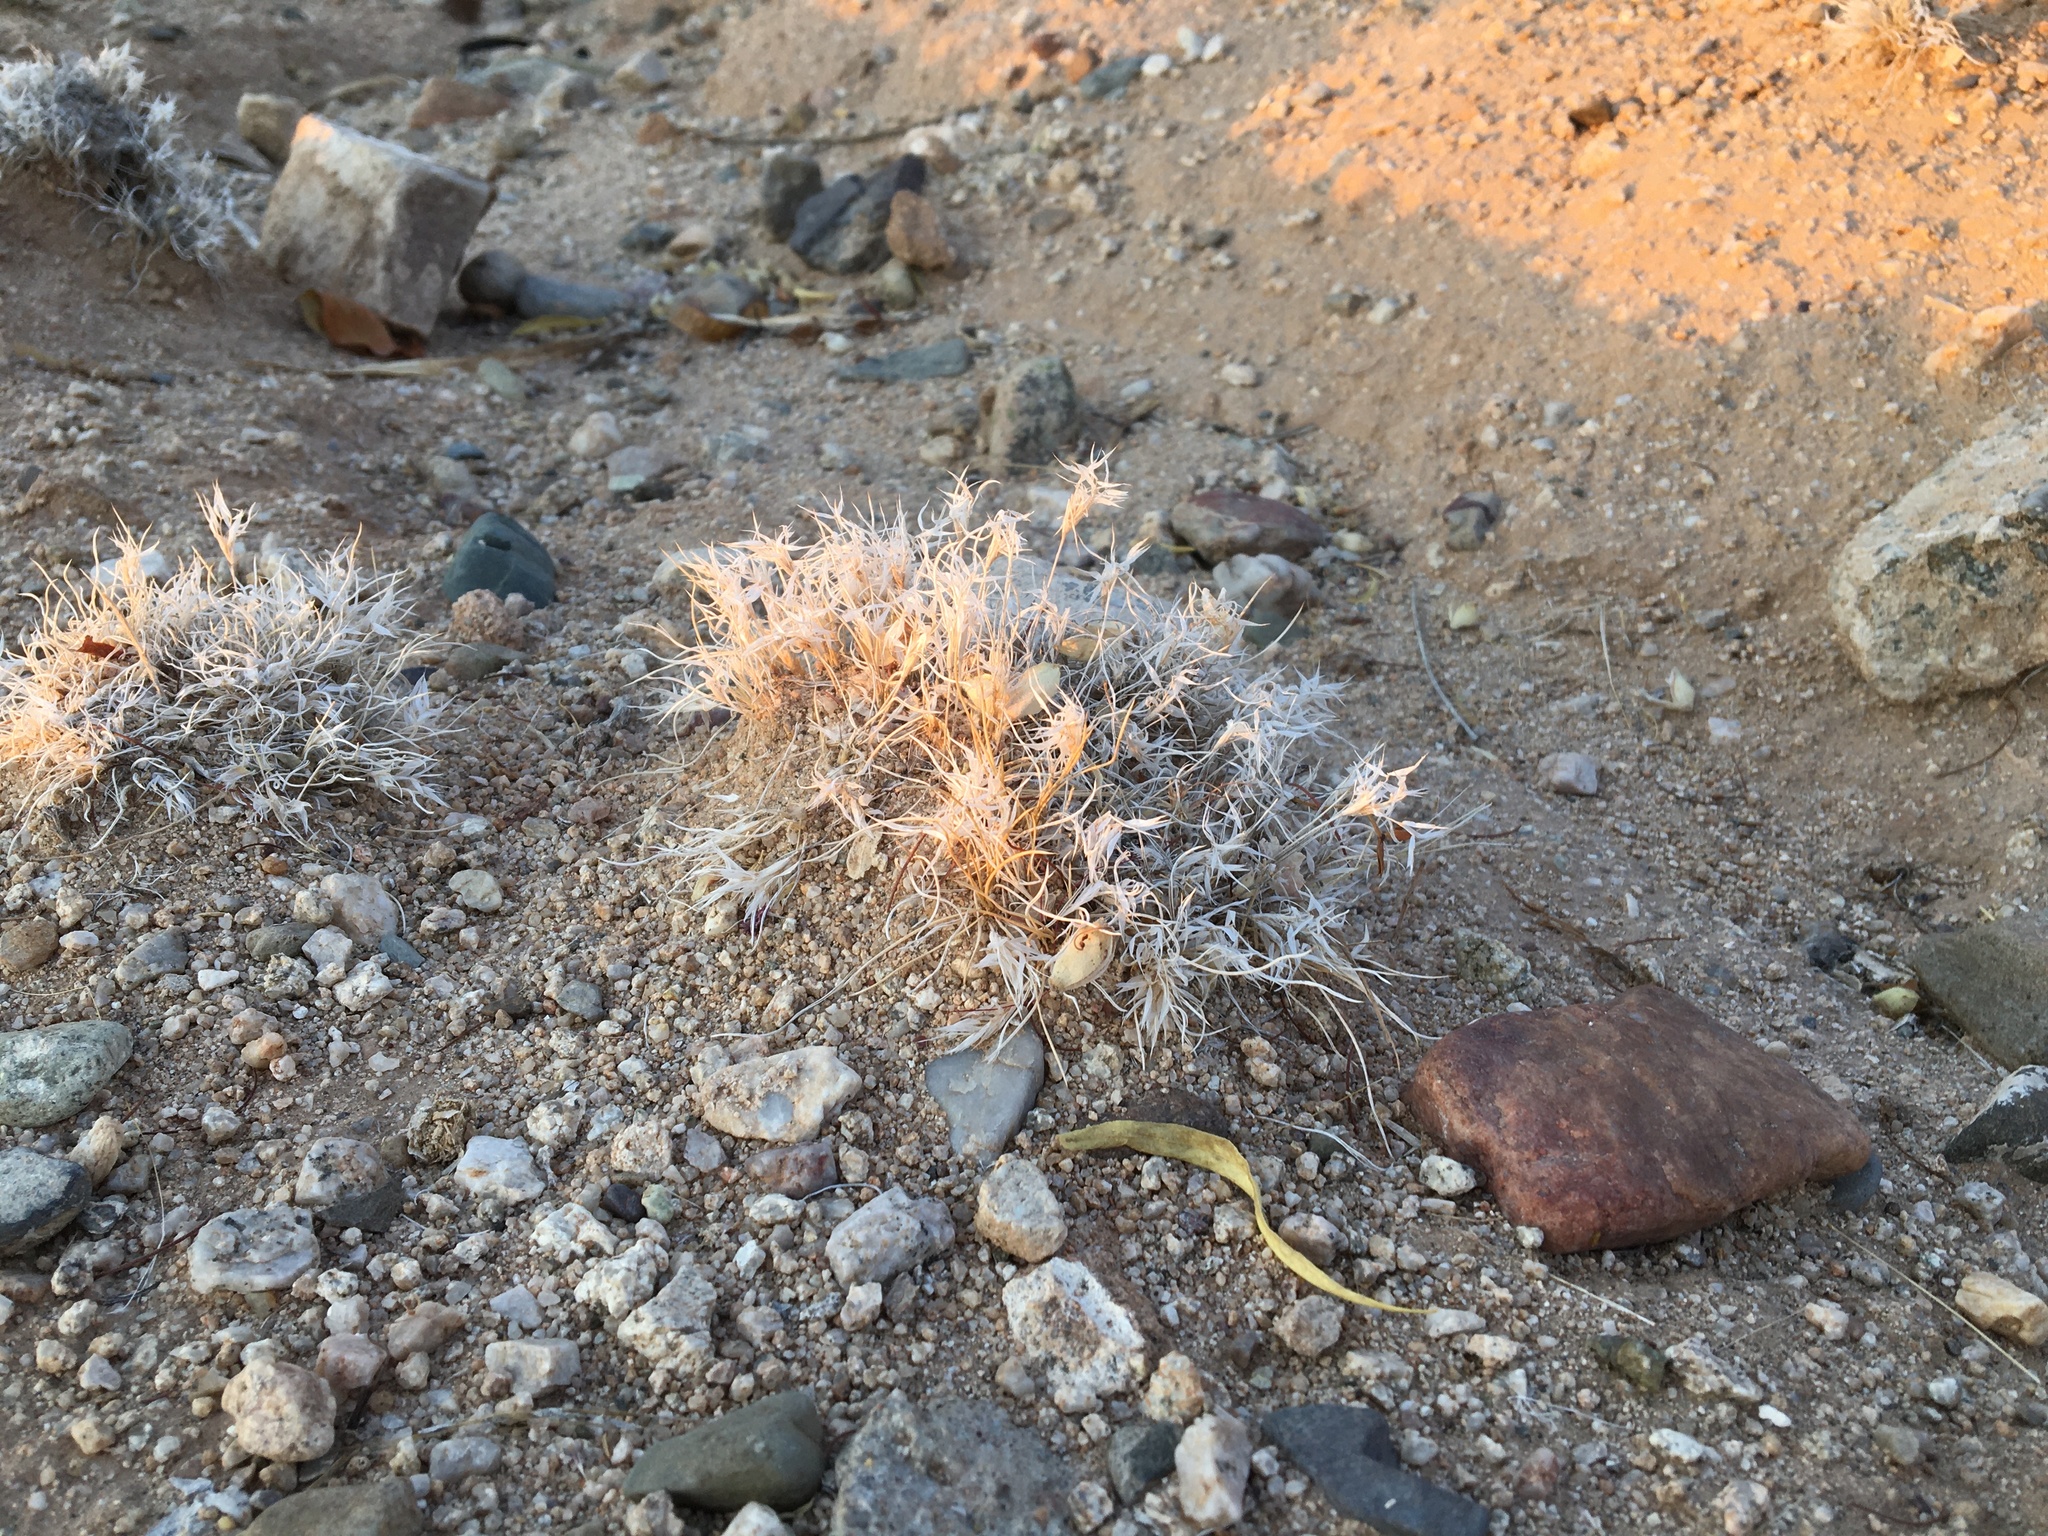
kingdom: Plantae
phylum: Tracheophyta
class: Liliopsida
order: Poales
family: Poaceae
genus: Dasyochloa
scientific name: Dasyochloa pulchella
